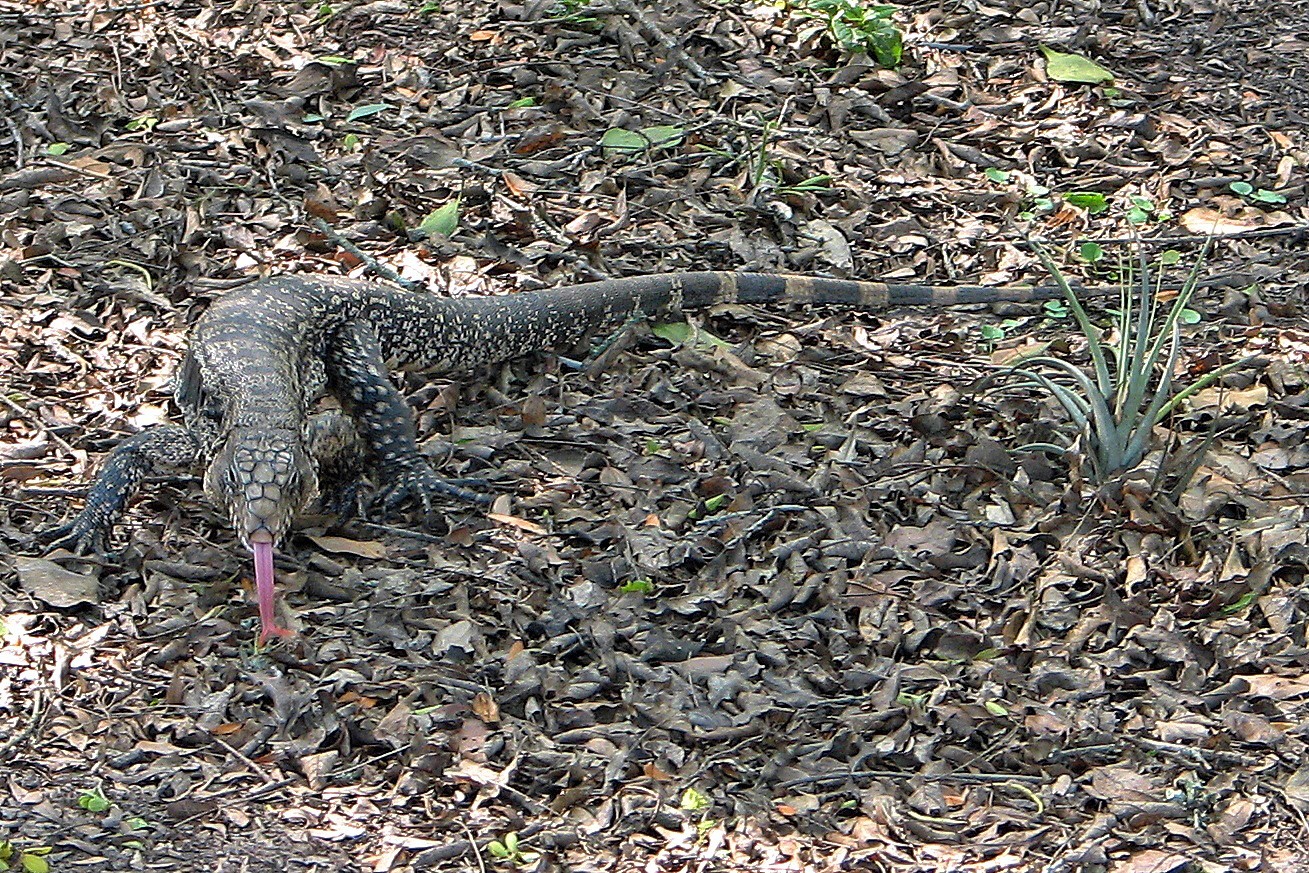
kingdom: Animalia
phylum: Chordata
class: Squamata
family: Teiidae
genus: Salvator
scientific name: Salvator merianae
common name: Argentine black and white tegu
